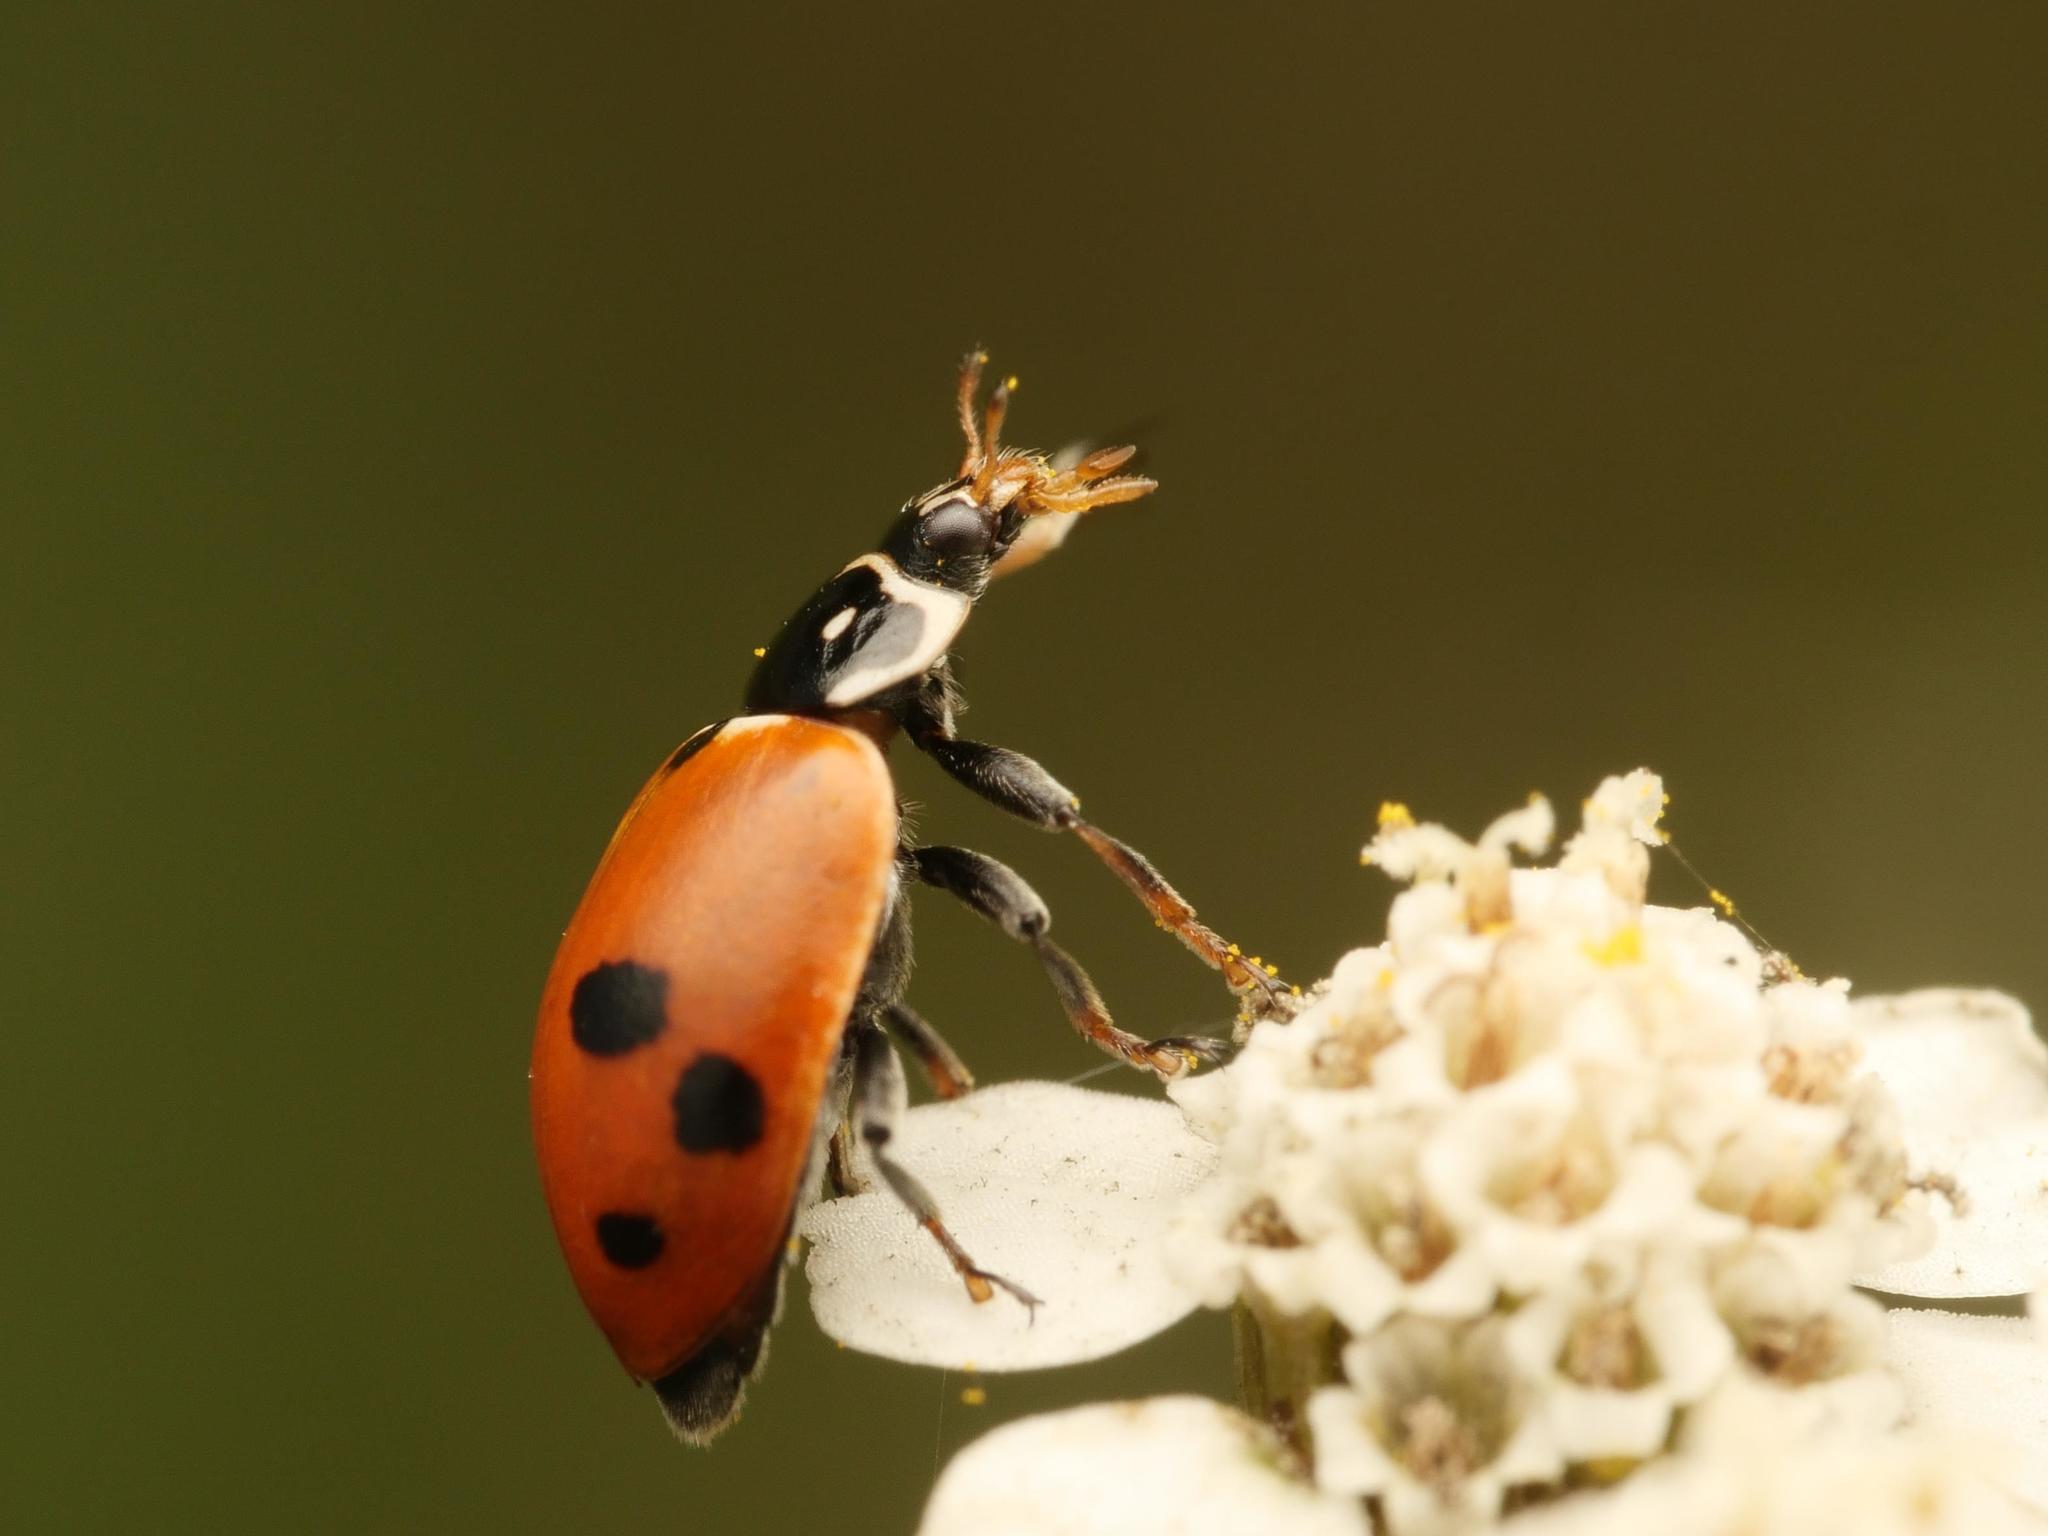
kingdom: Animalia
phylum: Arthropoda
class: Insecta
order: Coleoptera
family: Coccinellidae
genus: Hippodamia
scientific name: Hippodamia variegata
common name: Ladybird beetle
